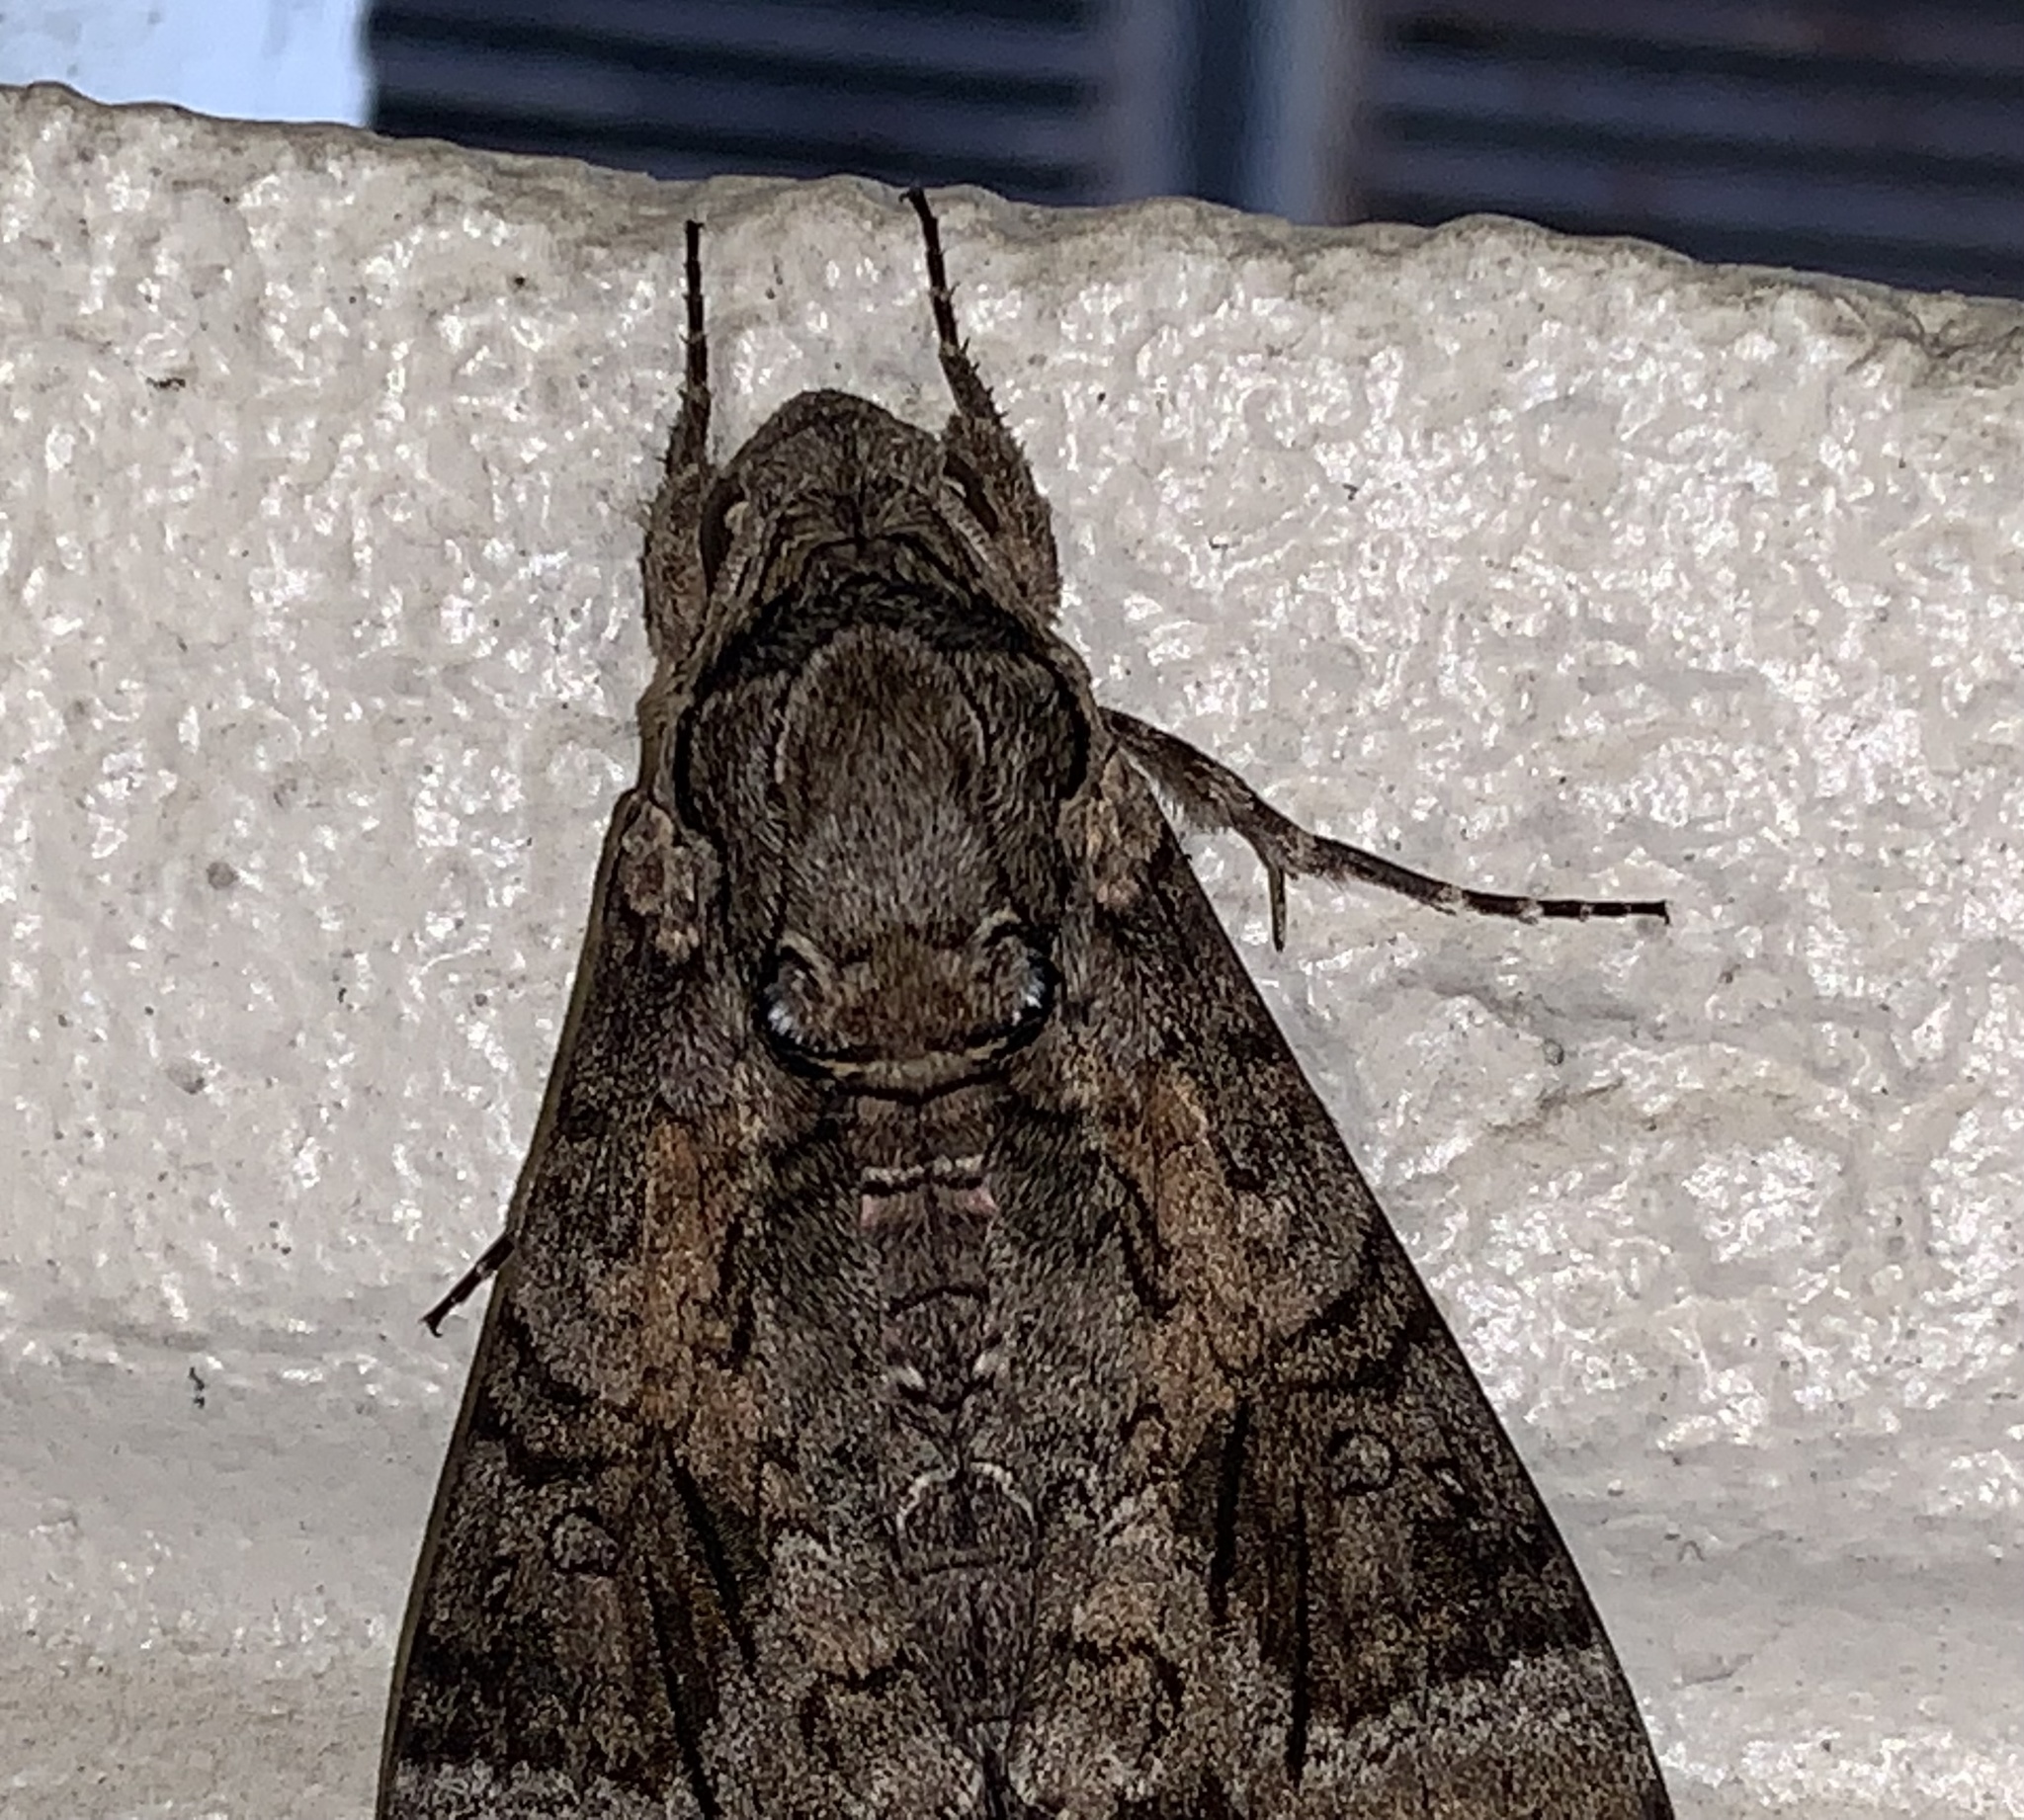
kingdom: Animalia
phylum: Arthropoda
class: Insecta
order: Lepidoptera
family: Sphingidae
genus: Agrius
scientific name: Agrius cingulata
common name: Pink-spotted hawkmoth
